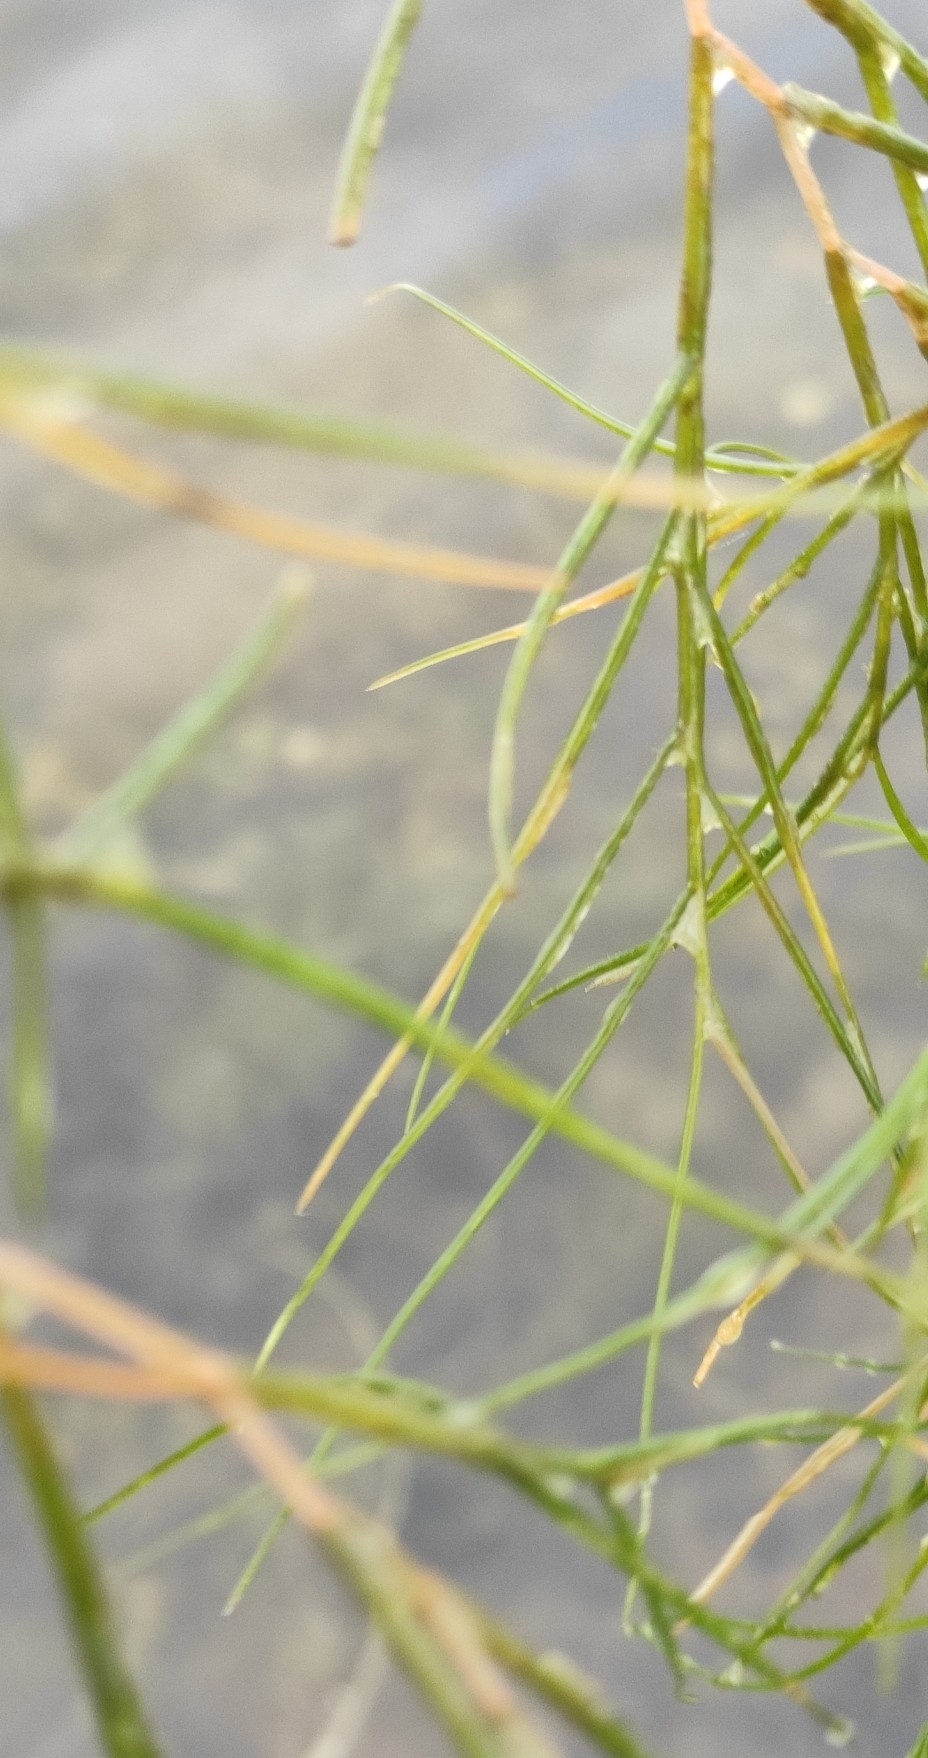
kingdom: Plantae
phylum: Tracheophyta
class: Liliopsida
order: Alismatales
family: Potamogetonaceae
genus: Stuckenia
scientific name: Stuckenia pectinata
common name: Sago pondweed
